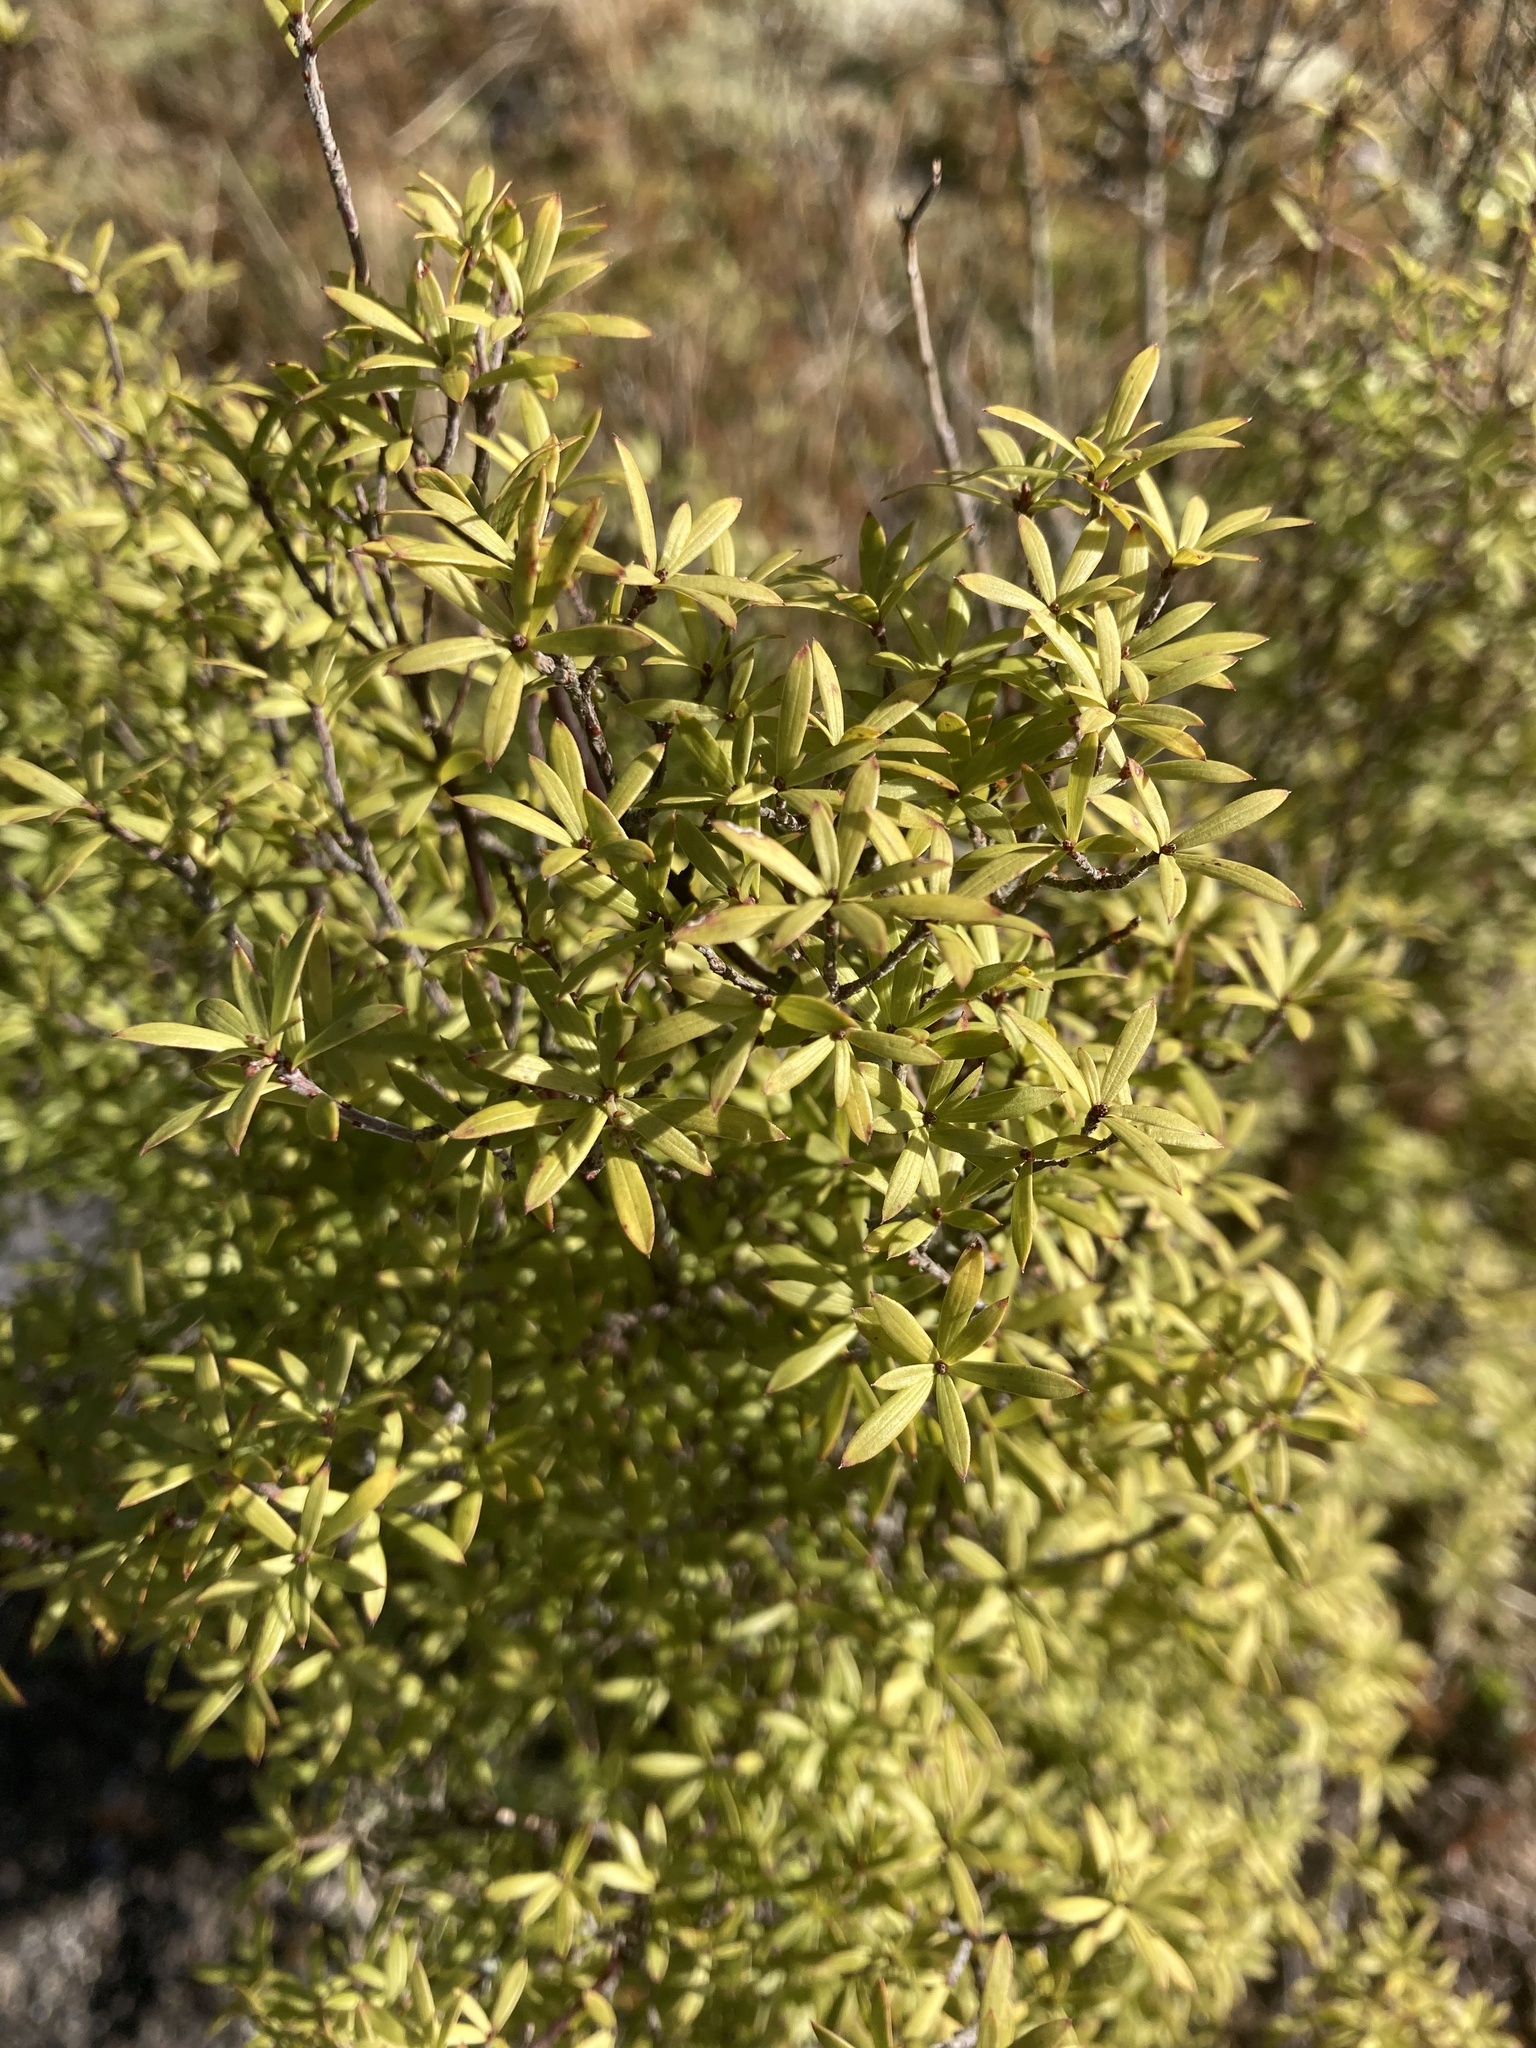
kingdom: Plantae
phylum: Tracheophyta
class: Magnoliopsida
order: Ericales
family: Ericaceae
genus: Leucopogon
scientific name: Leucopogon fasciculatus
